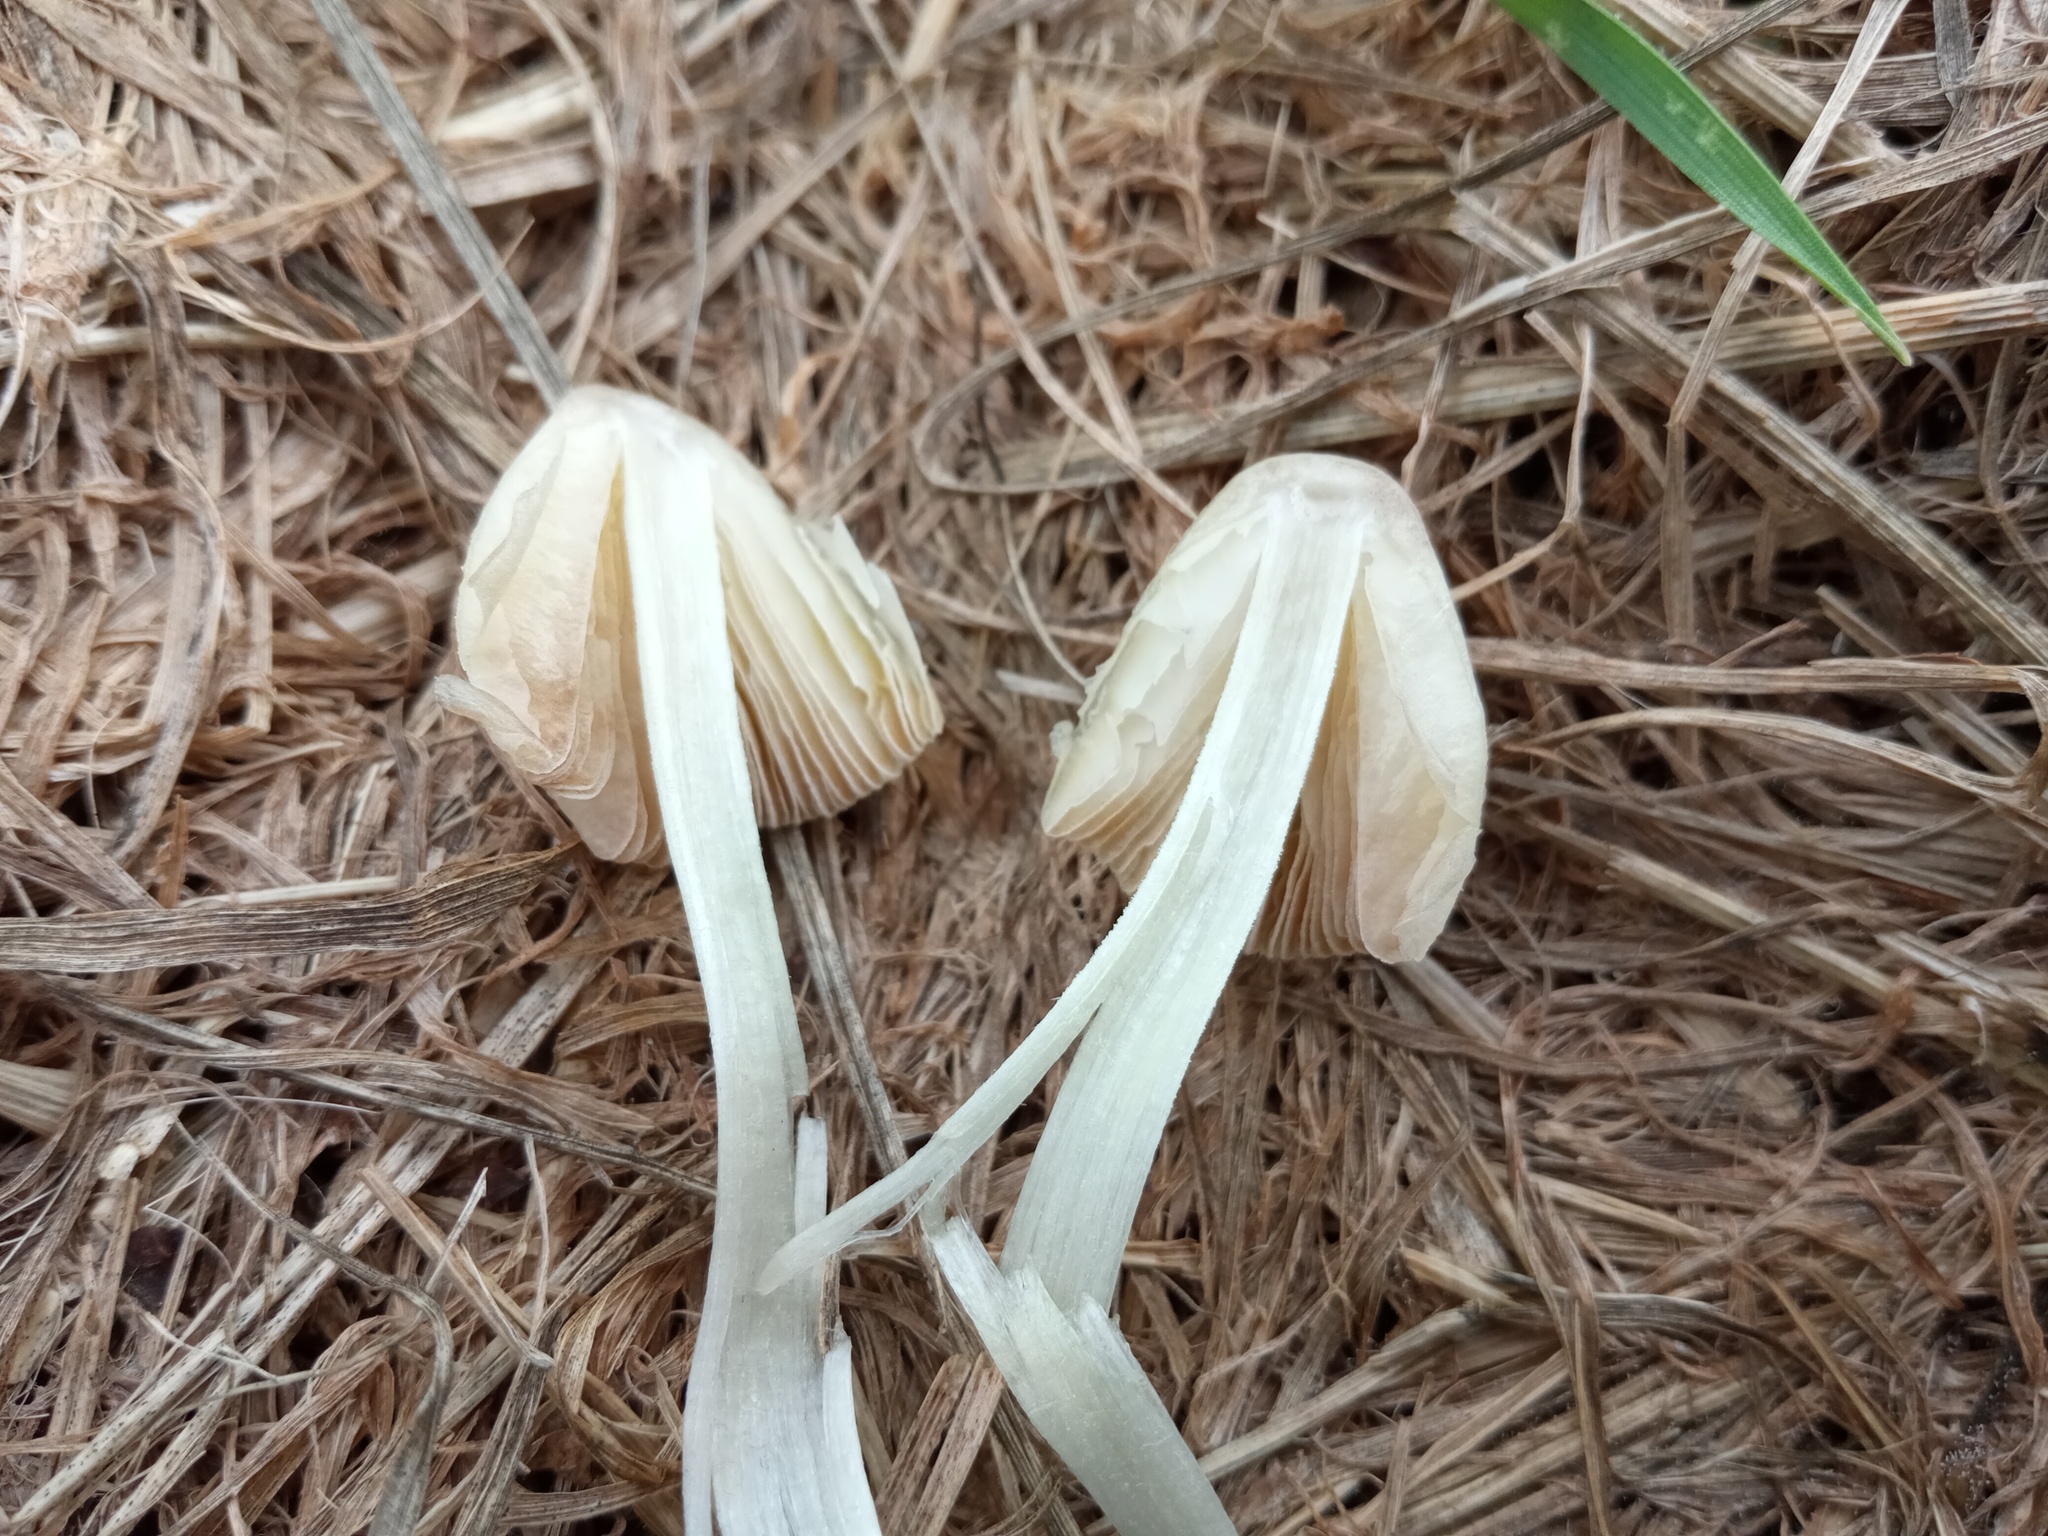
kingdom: Fungi
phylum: Basidiomycota
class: Agaricomycetes
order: Agaricales
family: Bolbitiaceae
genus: Bolbitius
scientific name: Bolbitius titubans
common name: Yellow fieldcap
